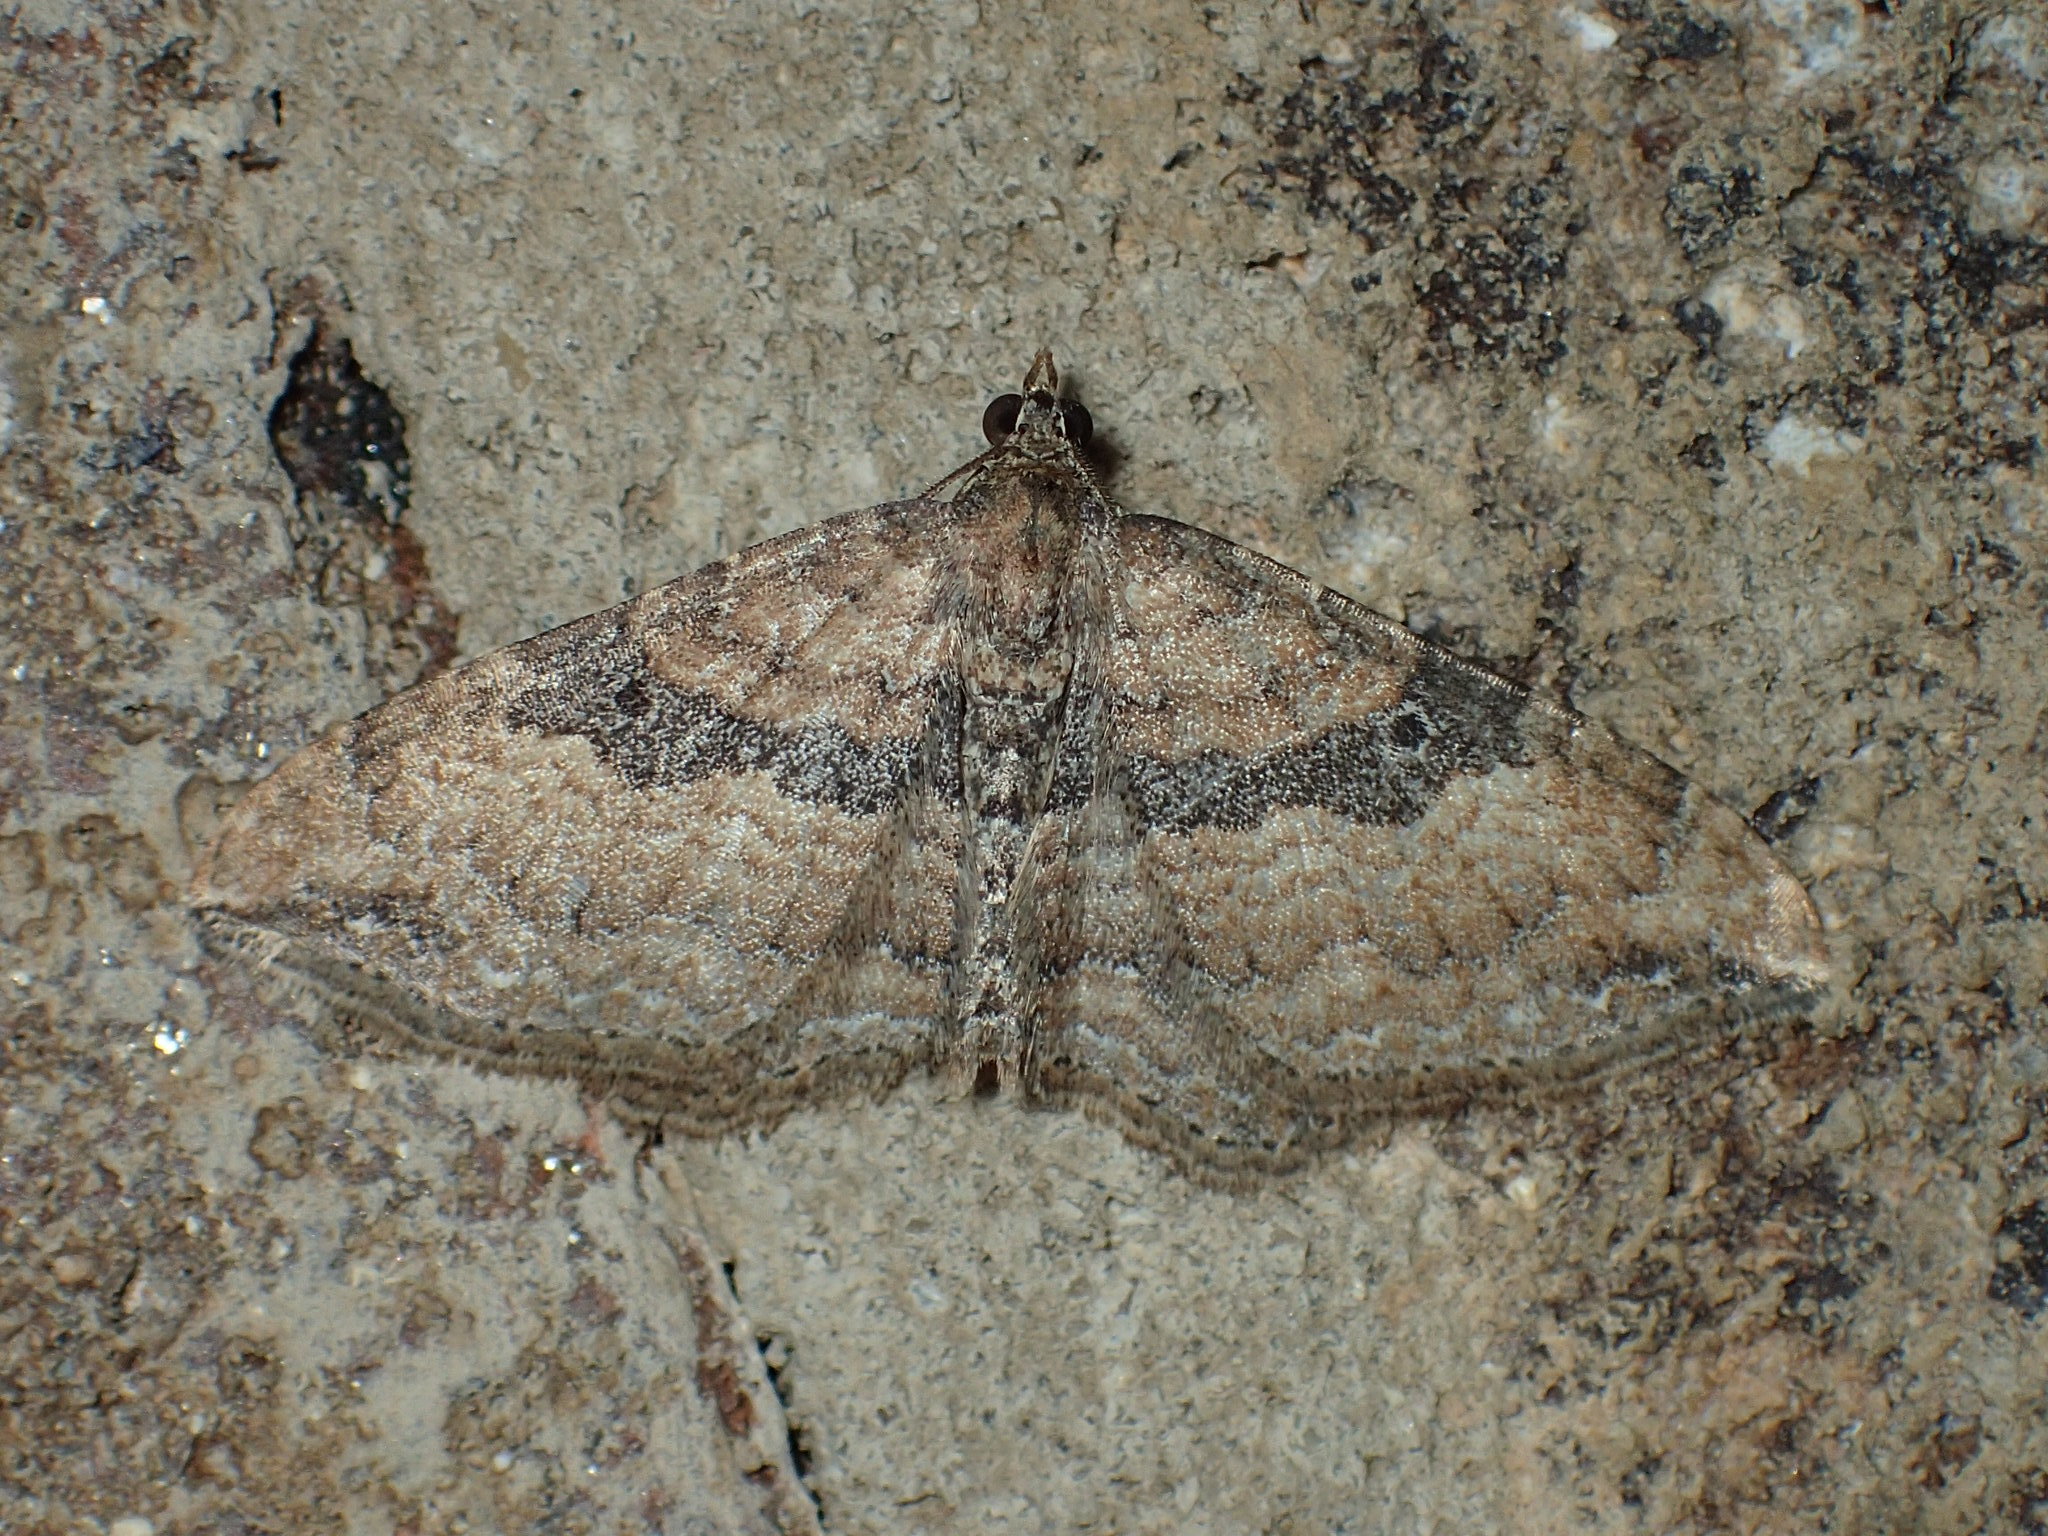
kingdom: Animalia
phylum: Arthropoda
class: Insecta
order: Lepidoptera
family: Geometridae
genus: Orthonama
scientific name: Orthonama obstipata
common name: The gem
